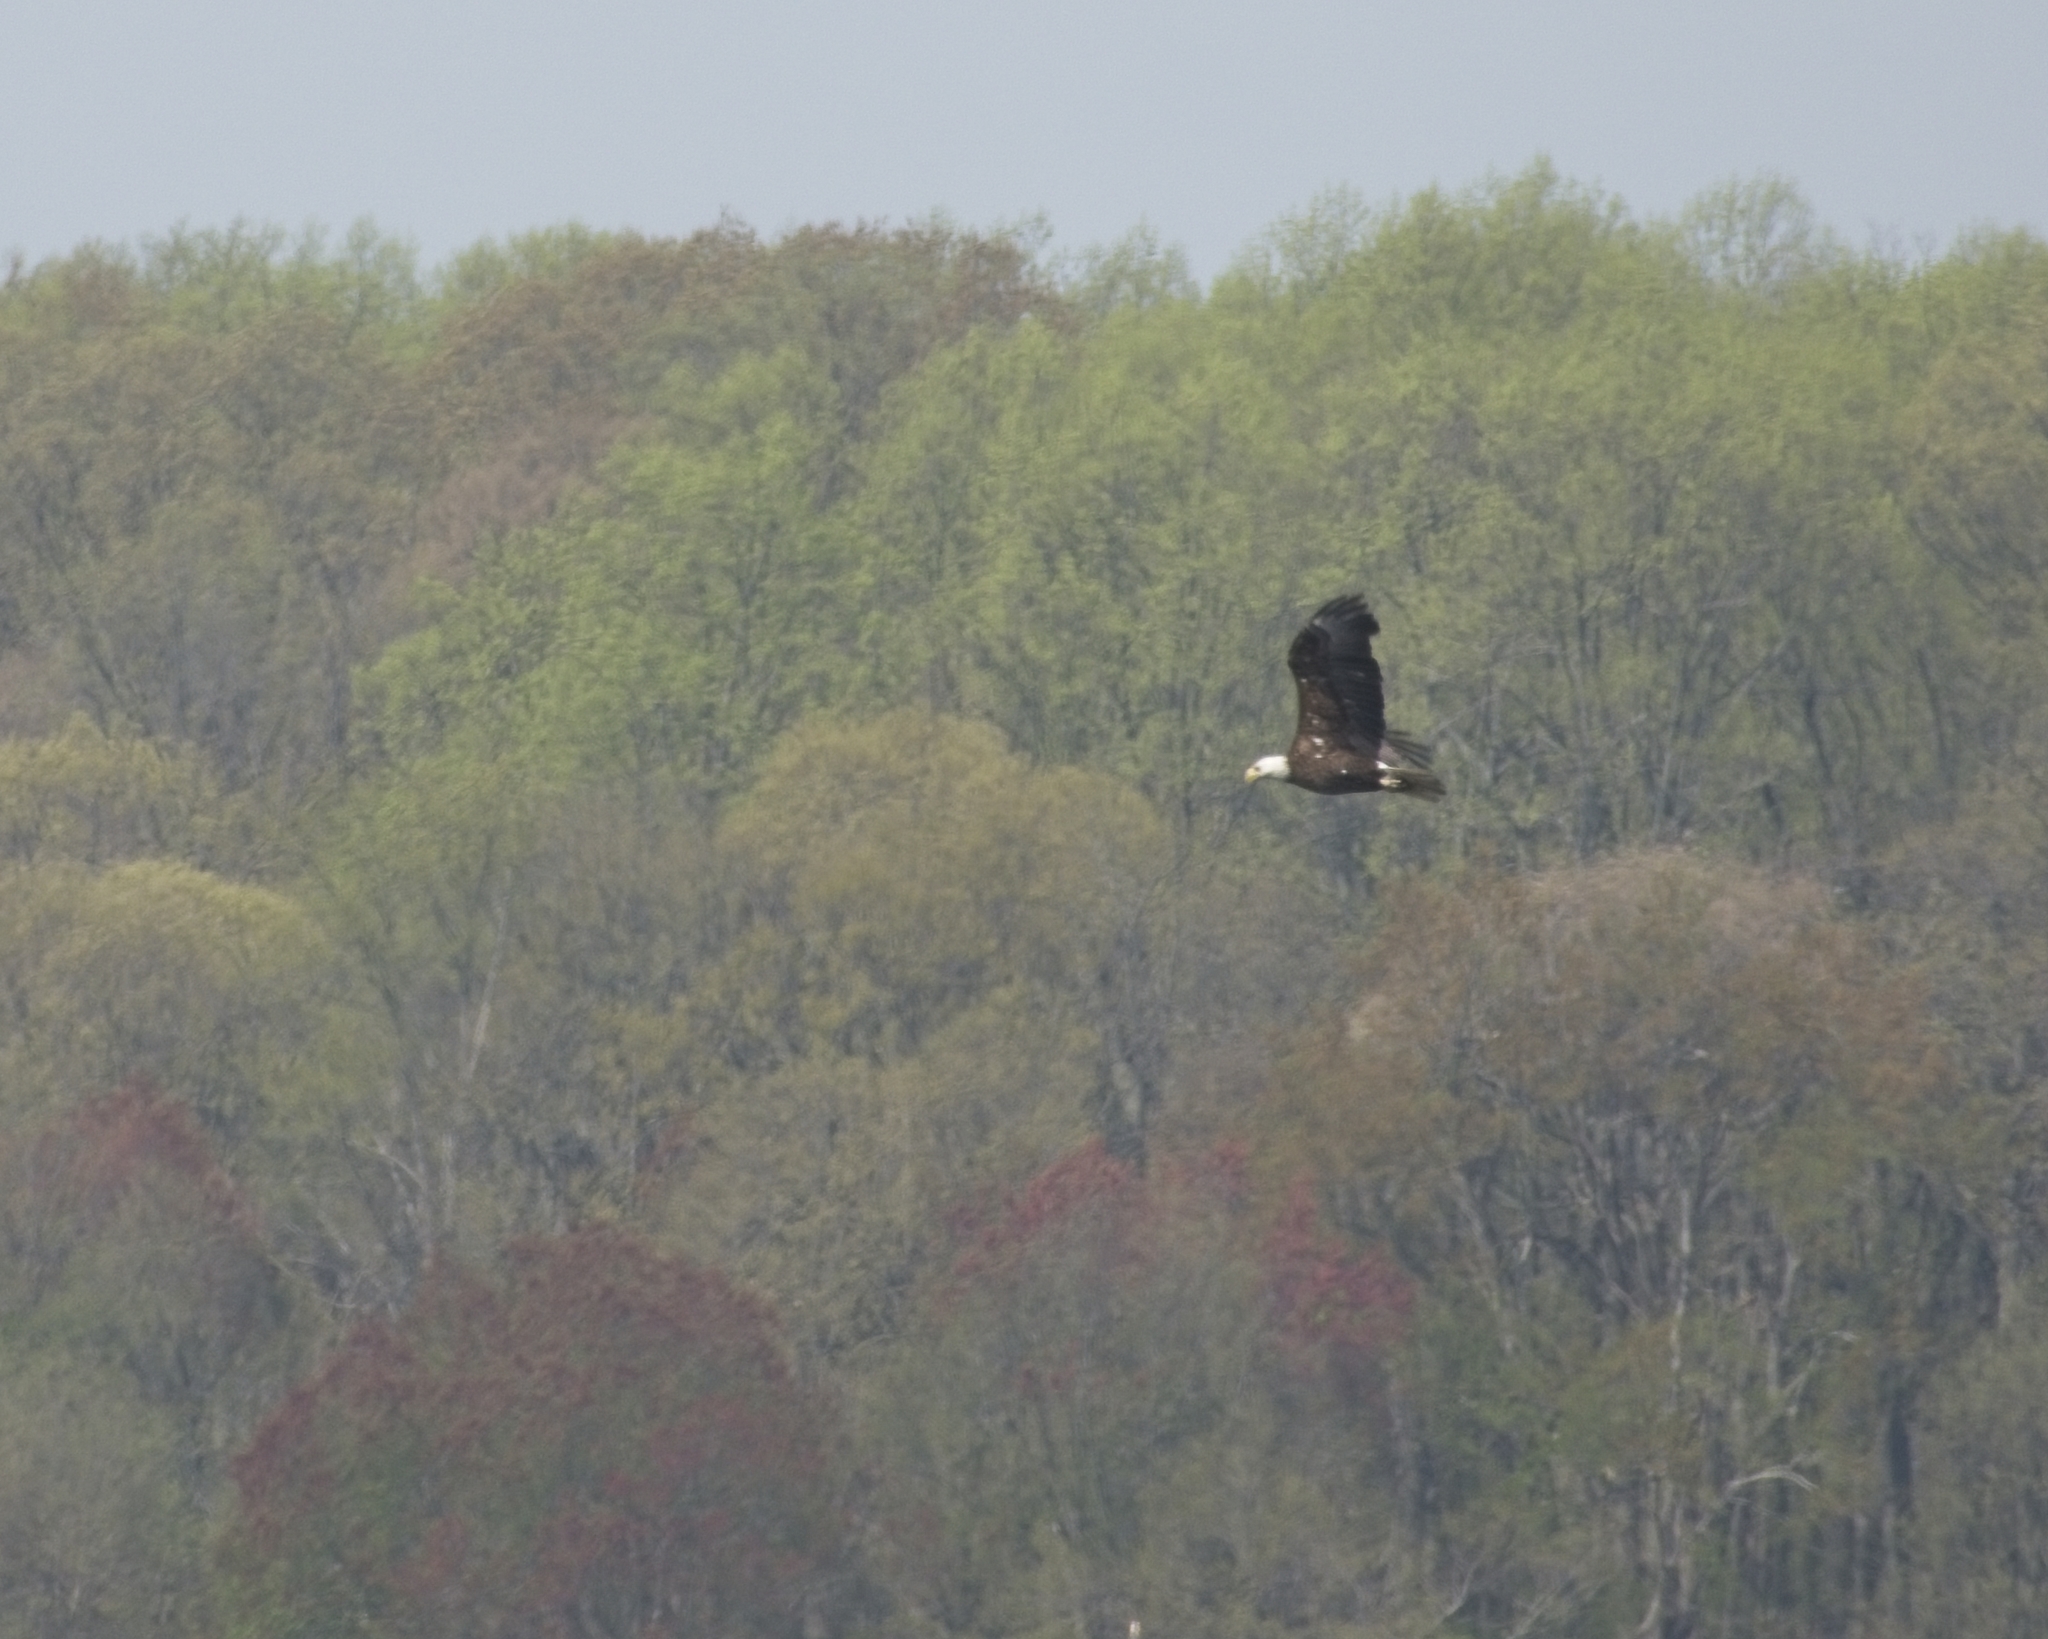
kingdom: Animalia
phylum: Chordata
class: Aves
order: Accipitriformes
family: Accipitridae
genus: Haliaeetus
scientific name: Haliaeetus leucocephalus
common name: Bald eagle
